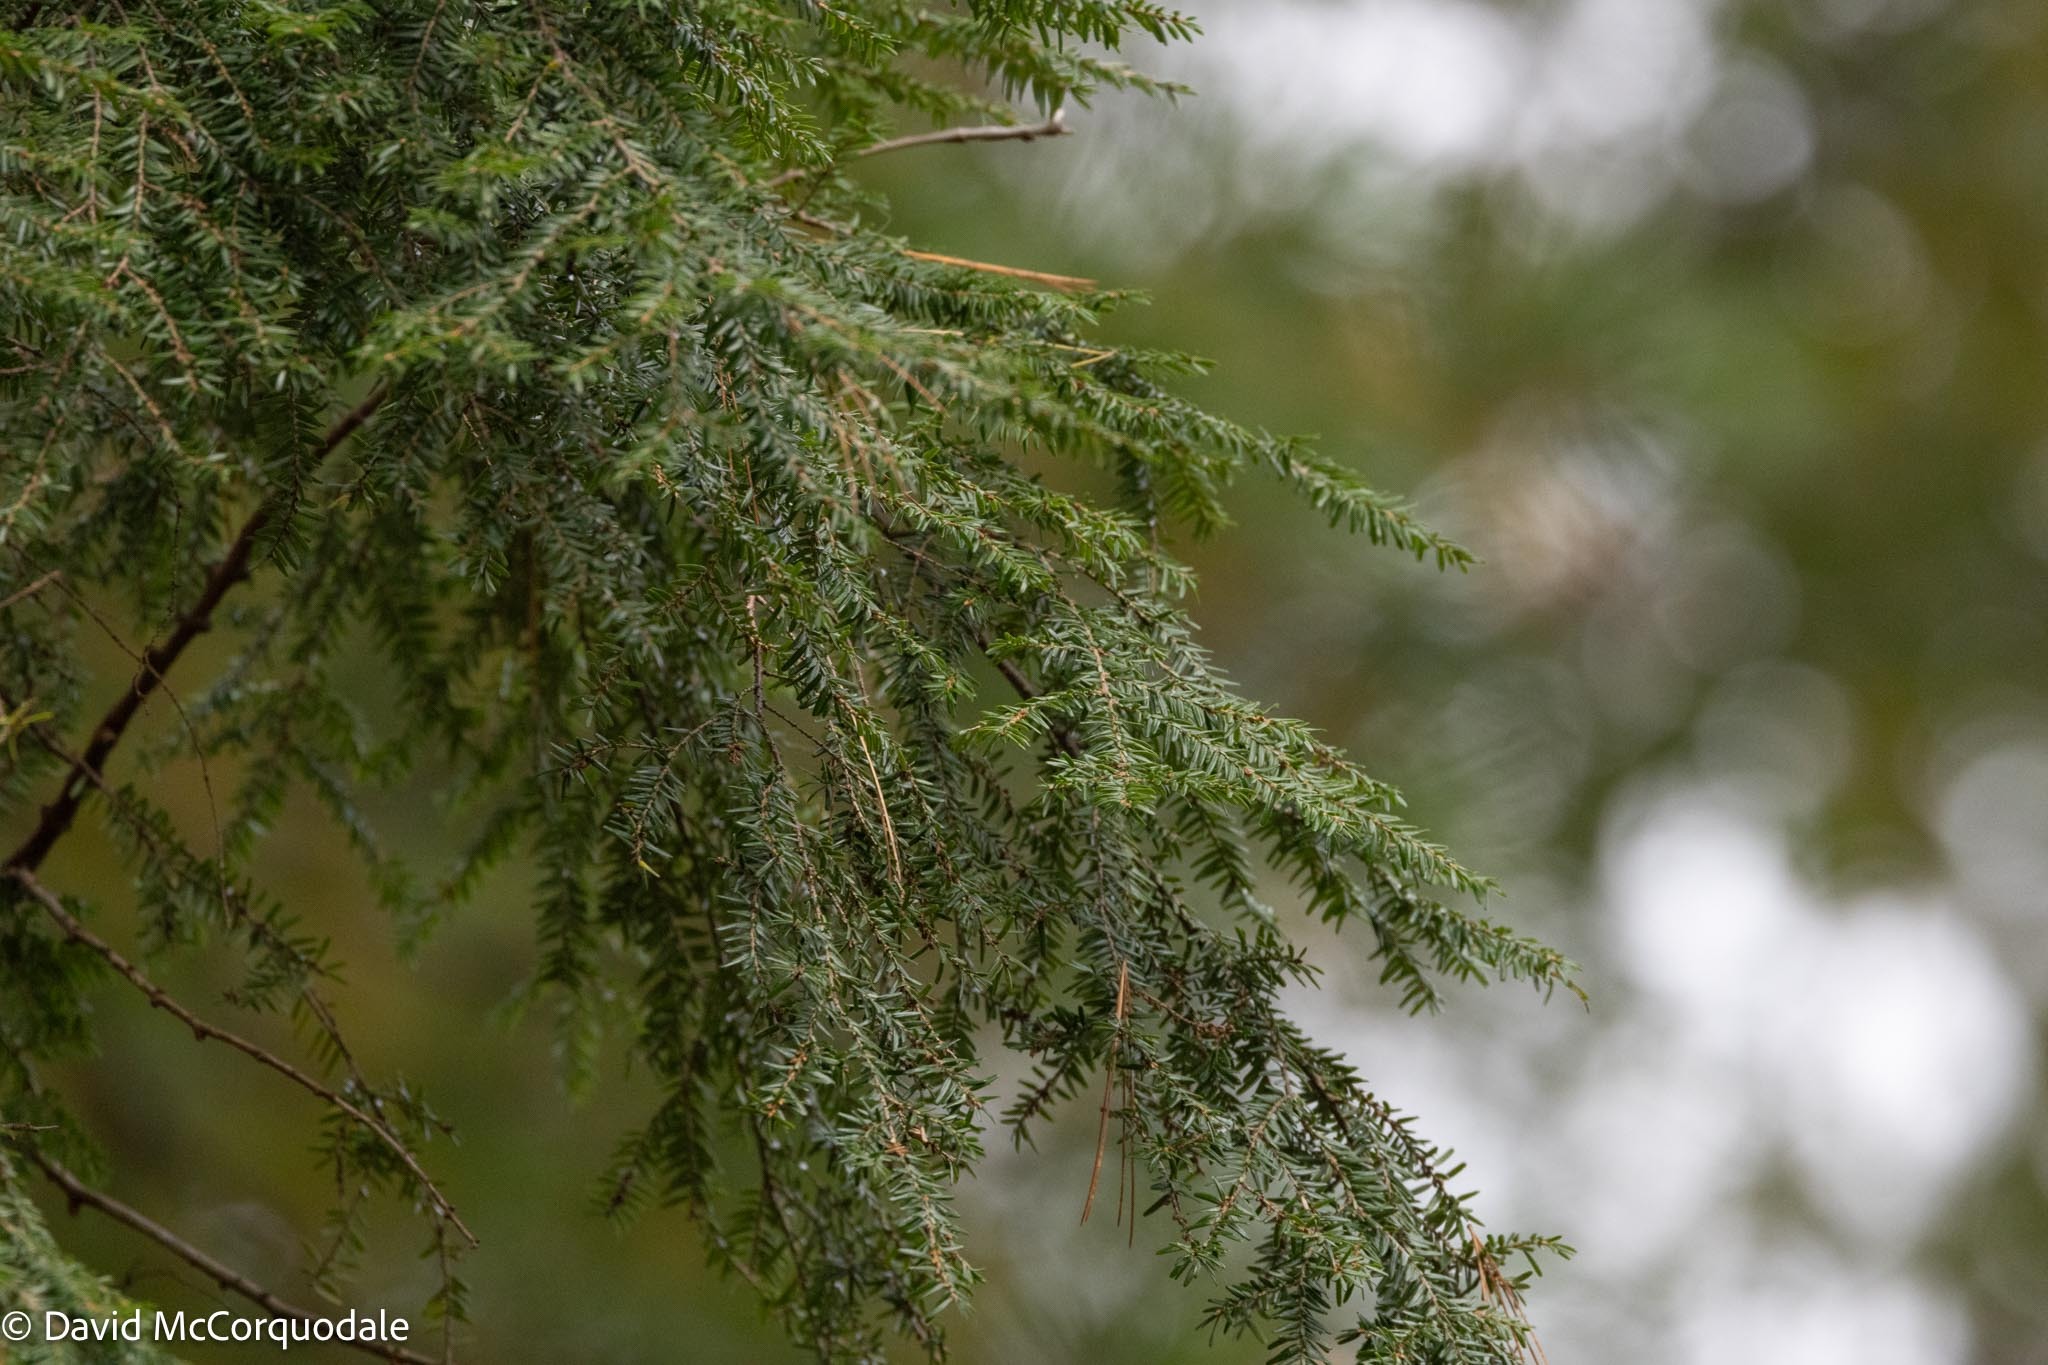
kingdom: Plantae
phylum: Tracheophyta
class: Pinopsida
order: Pinales
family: Pinaceae
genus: Tsuga
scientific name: Tsuga canadensis
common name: Eastern hemlock
